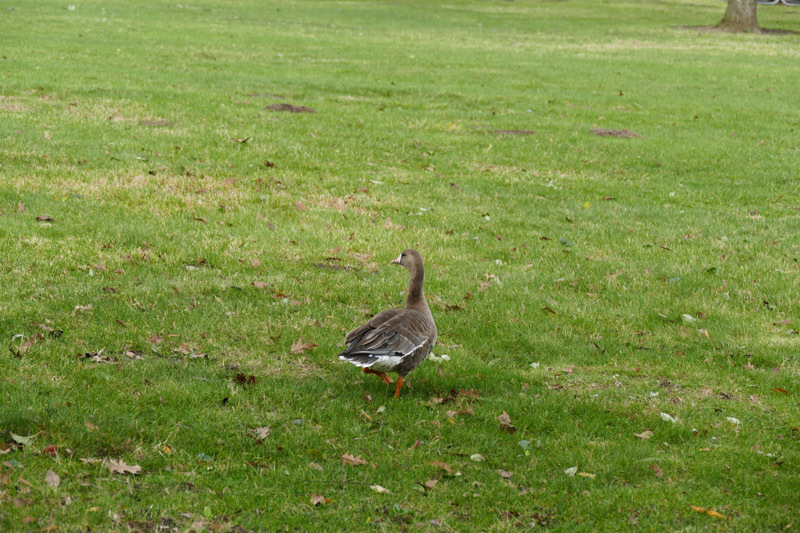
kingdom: Animalia
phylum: Chordata
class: Aves
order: Anseriformes
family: Anatidae
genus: Anser
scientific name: Anser albifrons
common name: Greater white-fronted goose
